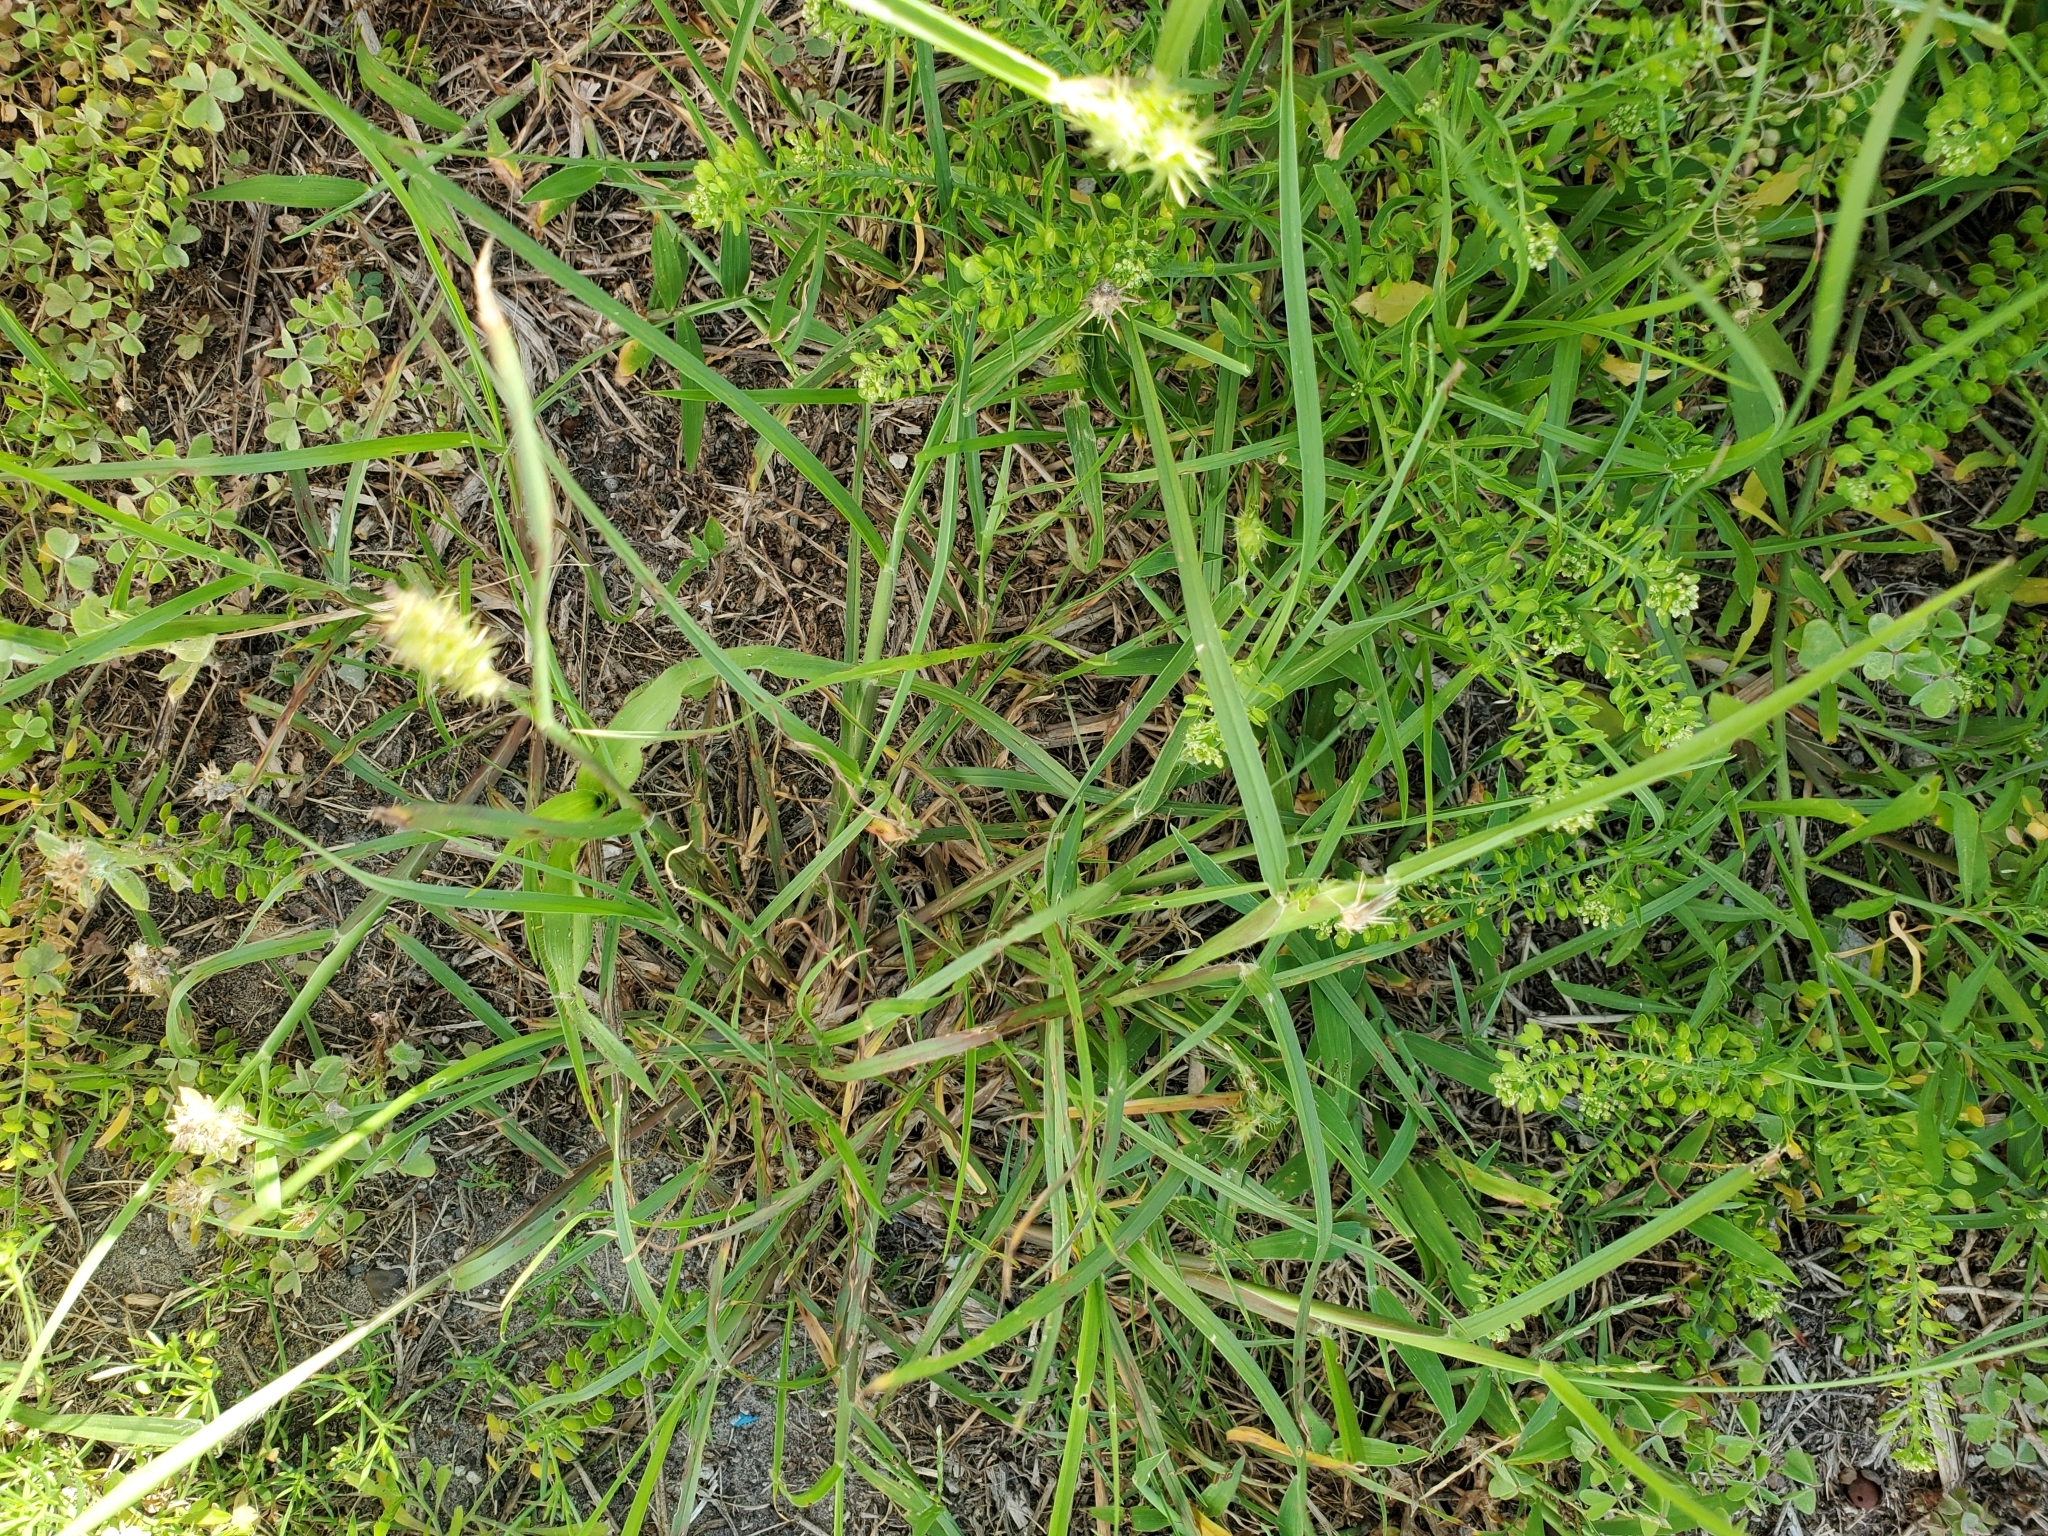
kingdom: Plantae
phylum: Tracheophyta
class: Liliopsida
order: Poales
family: Poaceae
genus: Cenchrus
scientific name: Cenchrus spinifex
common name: Coast sandbur
